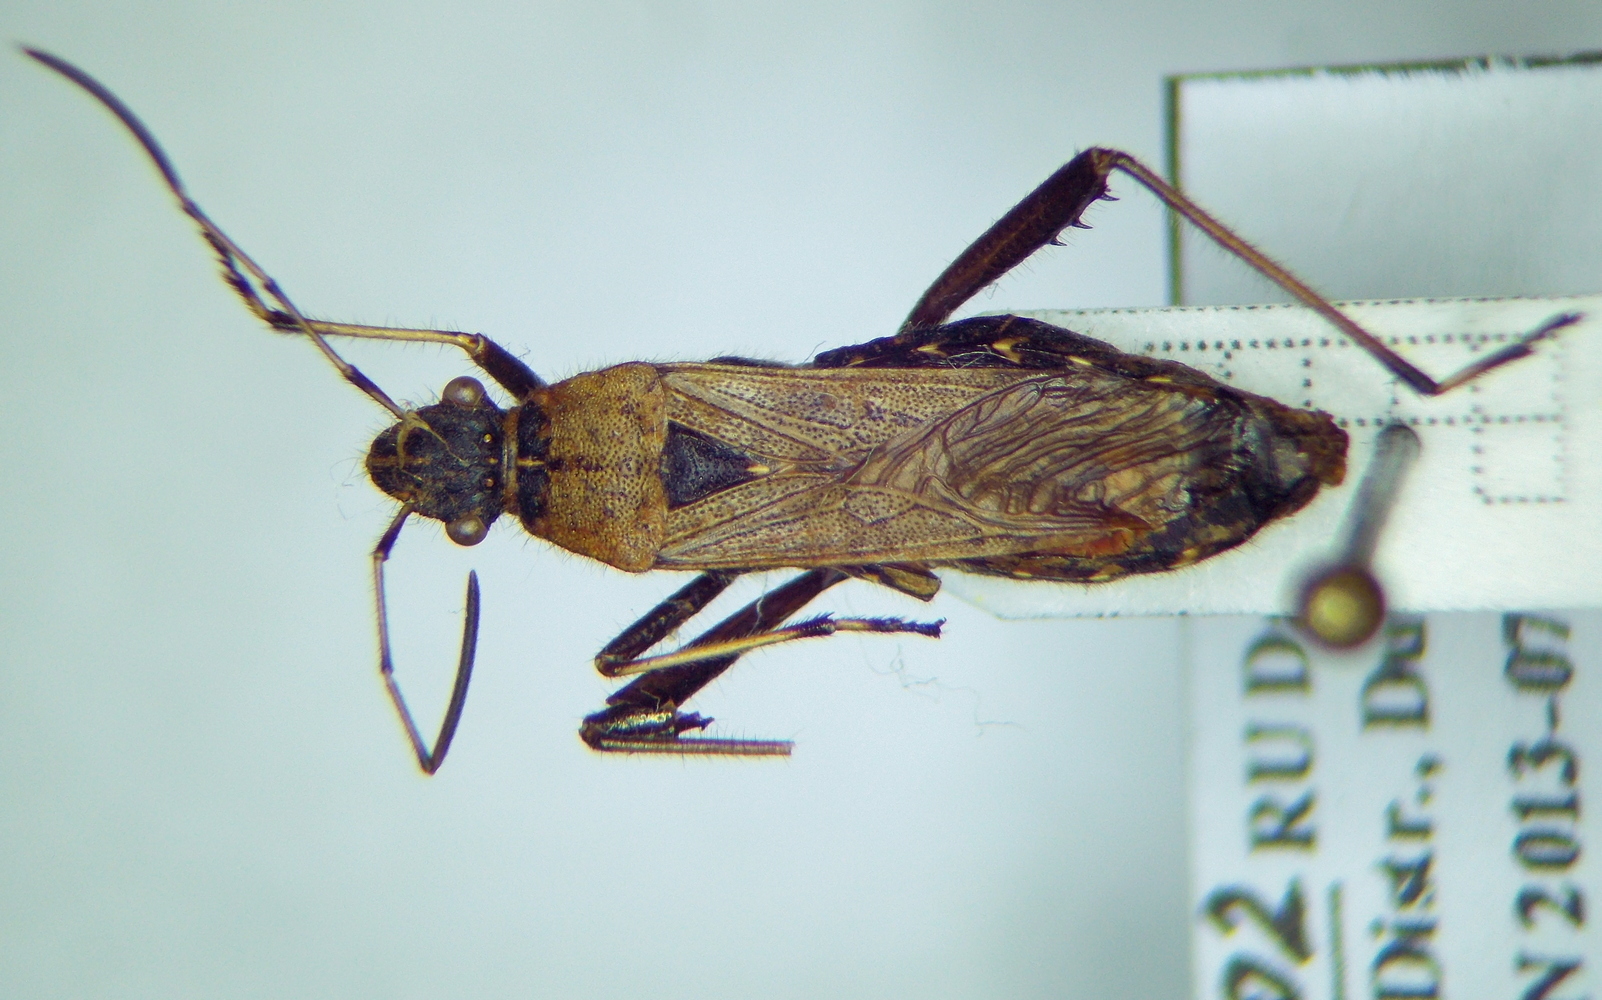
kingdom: Animalia
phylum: Arthropoda
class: Insecta
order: Hemiptera
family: Alydidae
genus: Alydus
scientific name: Alydus calcaratus
